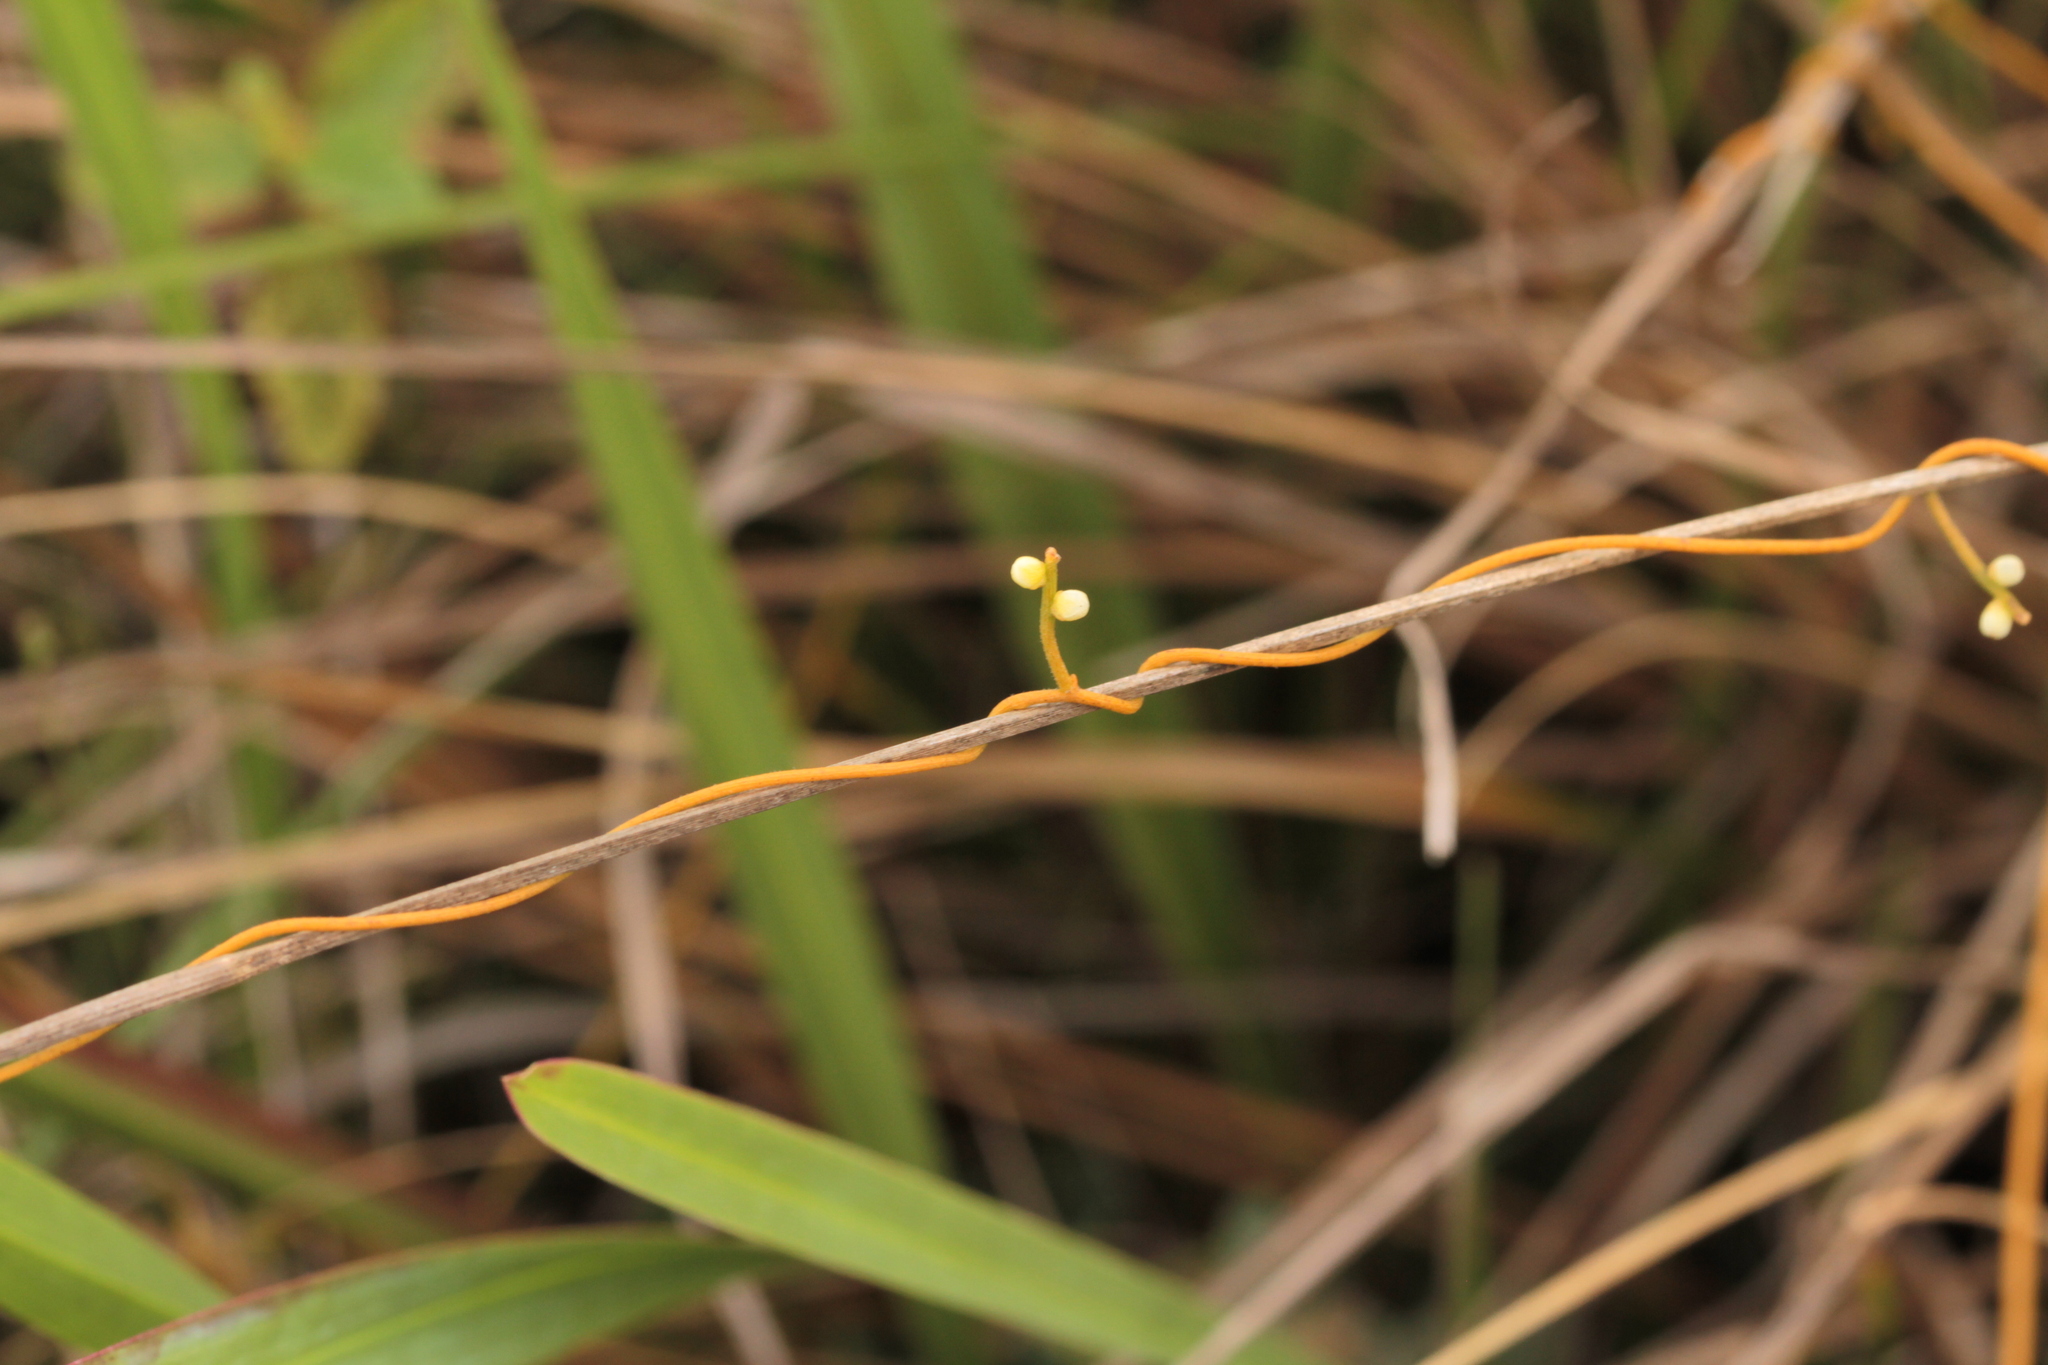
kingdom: Plantae
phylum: Tracheophyta
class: Magnoliopsida
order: Laurales
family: Lauraceae
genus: Cassytha
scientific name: Cassytha filiformis
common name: Dodder-laurel
